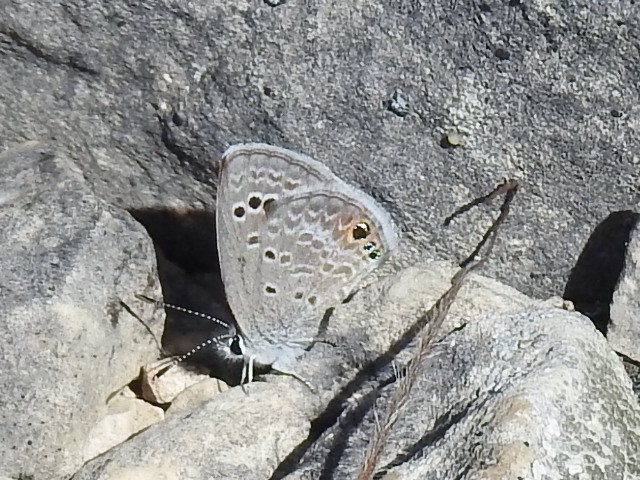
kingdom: Animalia
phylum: Arthropoda
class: Insecta
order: Lepidoptera
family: Lycaenidae
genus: Echinargus
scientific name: Echinargus isola
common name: Reakirt's blue
